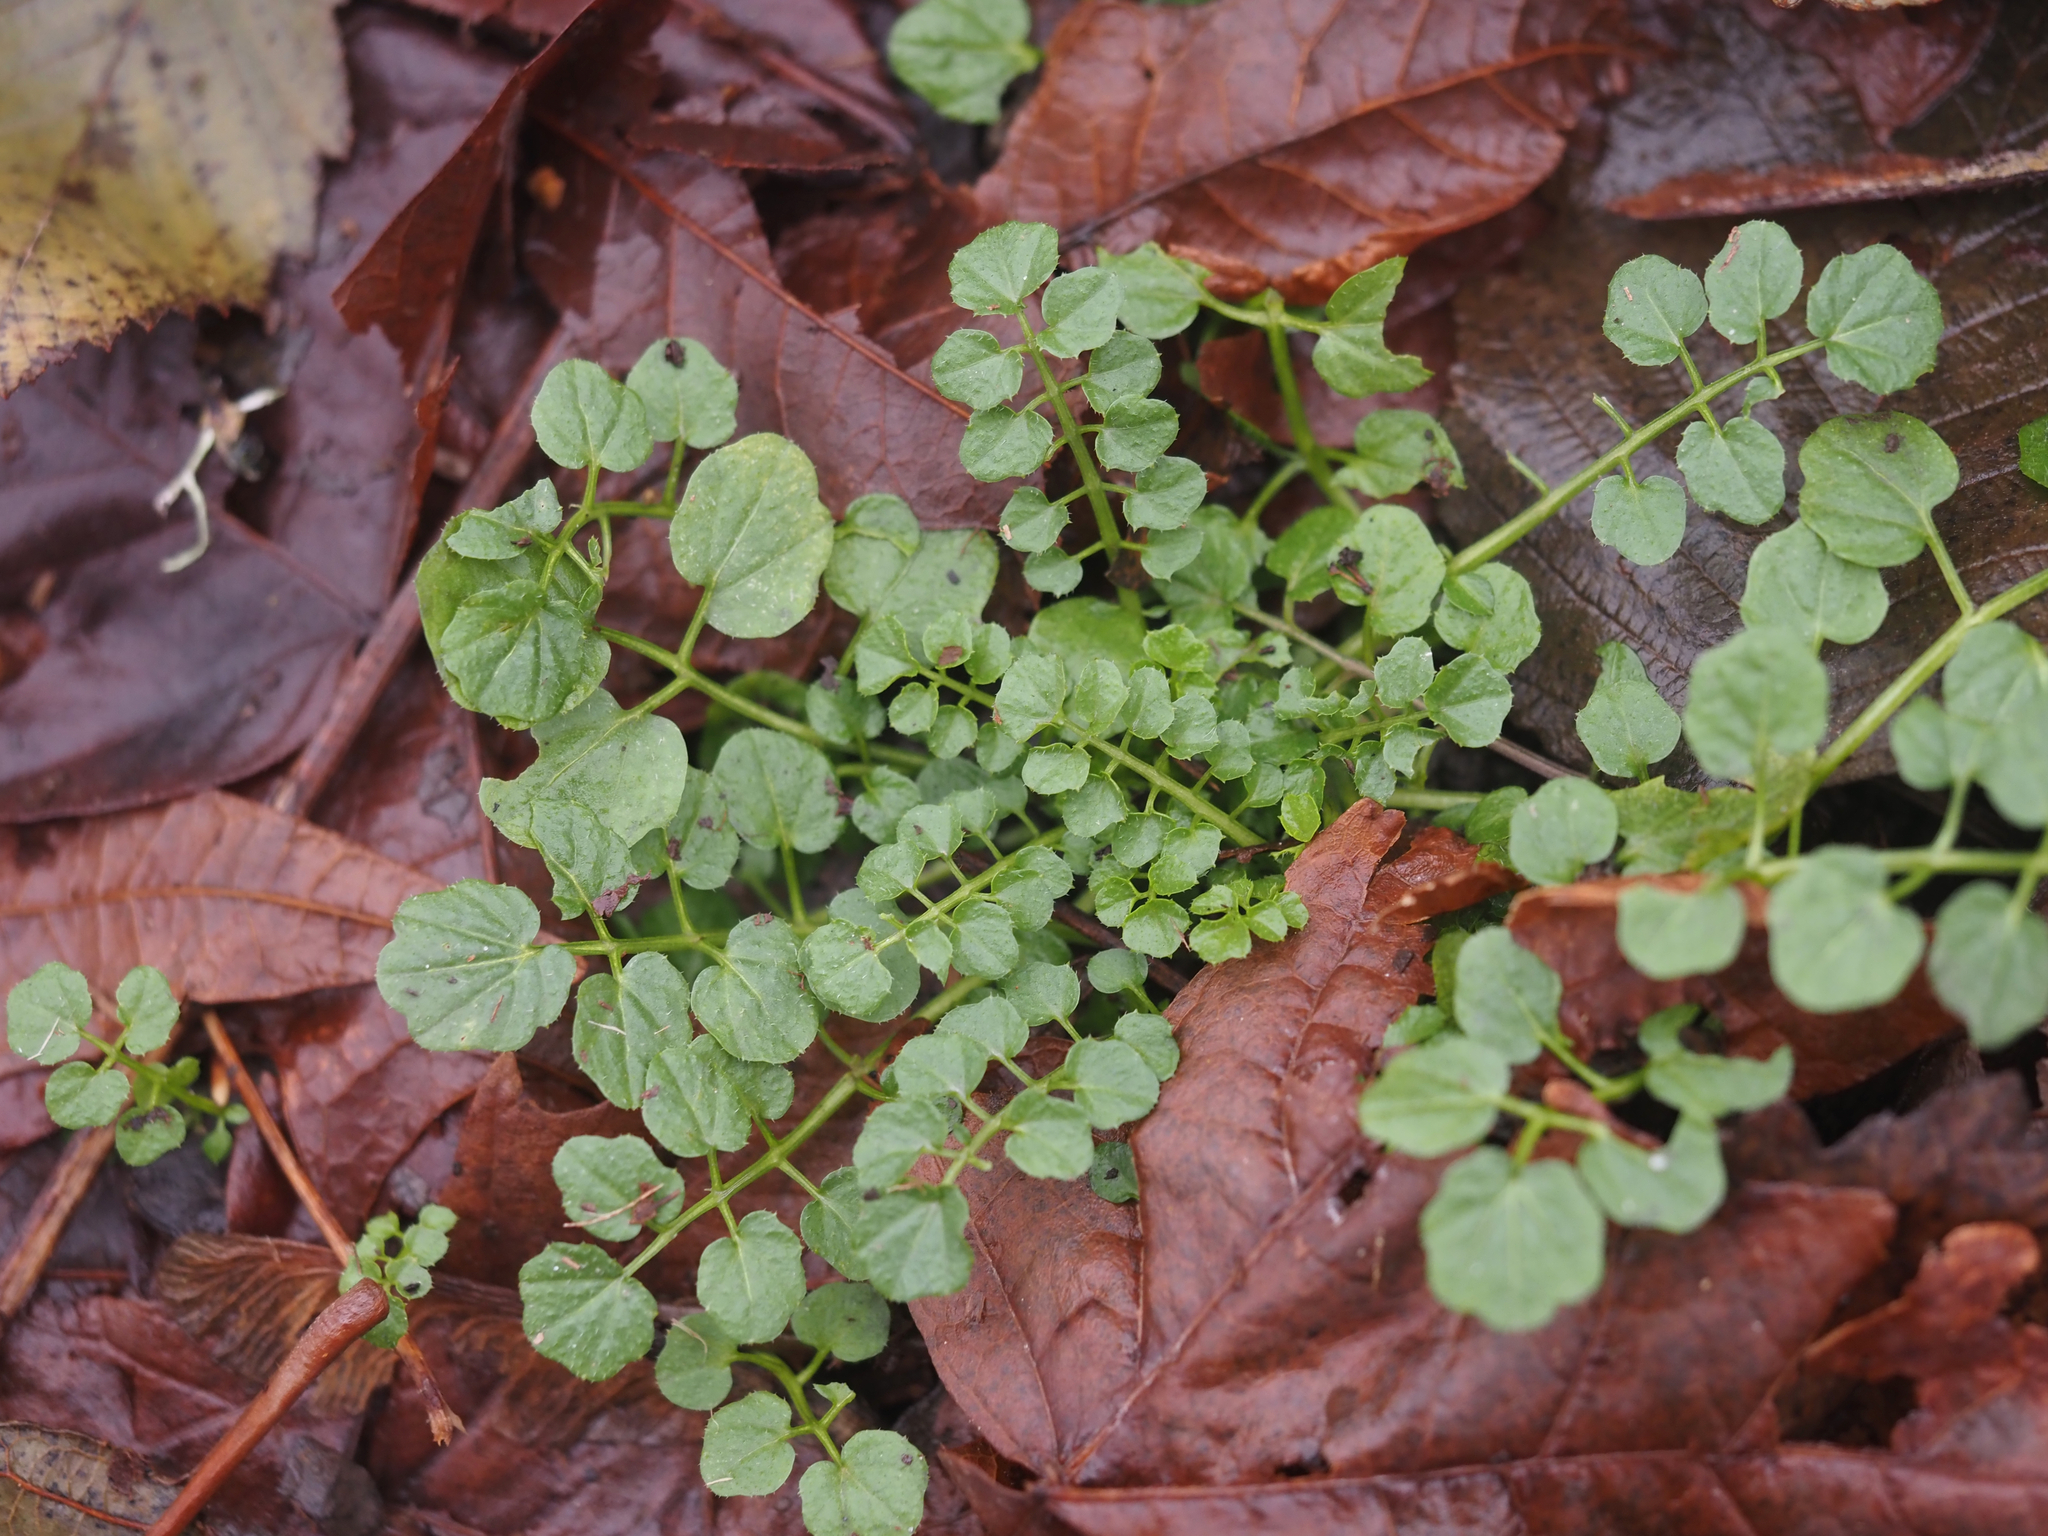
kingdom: Plantae
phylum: Tracheophyta
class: Magnoliopsida
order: Brassicales
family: Brassicaceae
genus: Cardamine
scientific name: Cardamine flexuosa
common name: Woodland bittercress
